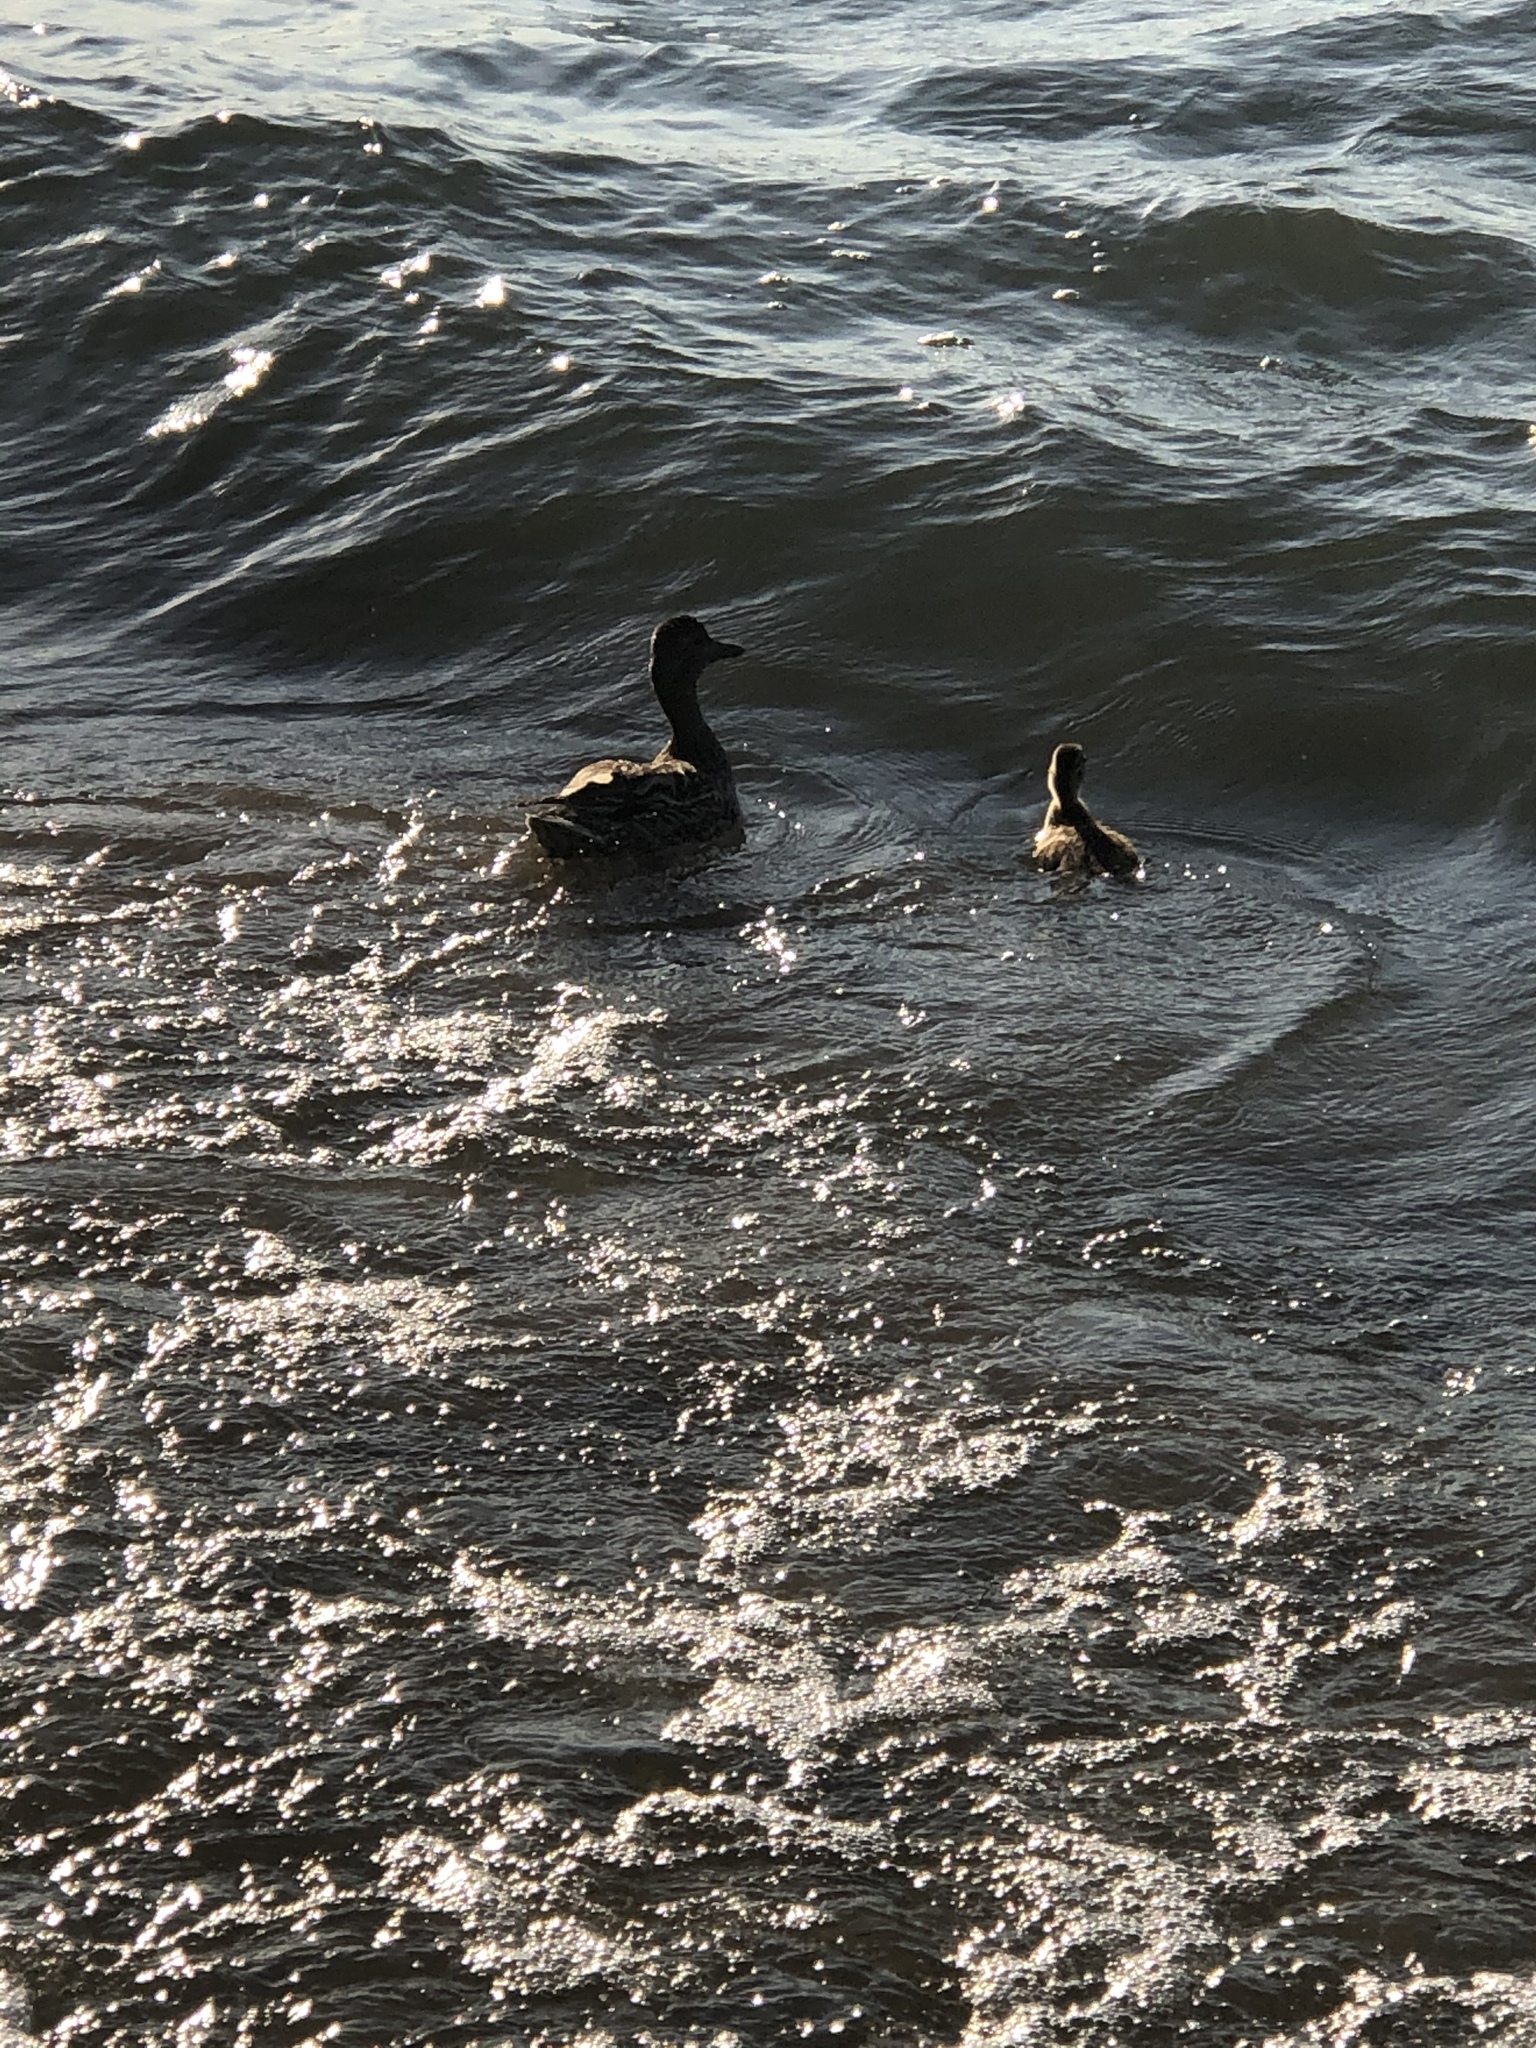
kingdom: Animalia
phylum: Chordata
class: Aves
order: Anseriformes
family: Anatidae
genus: Anas
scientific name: Anas platyrhynchos
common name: Mallard
